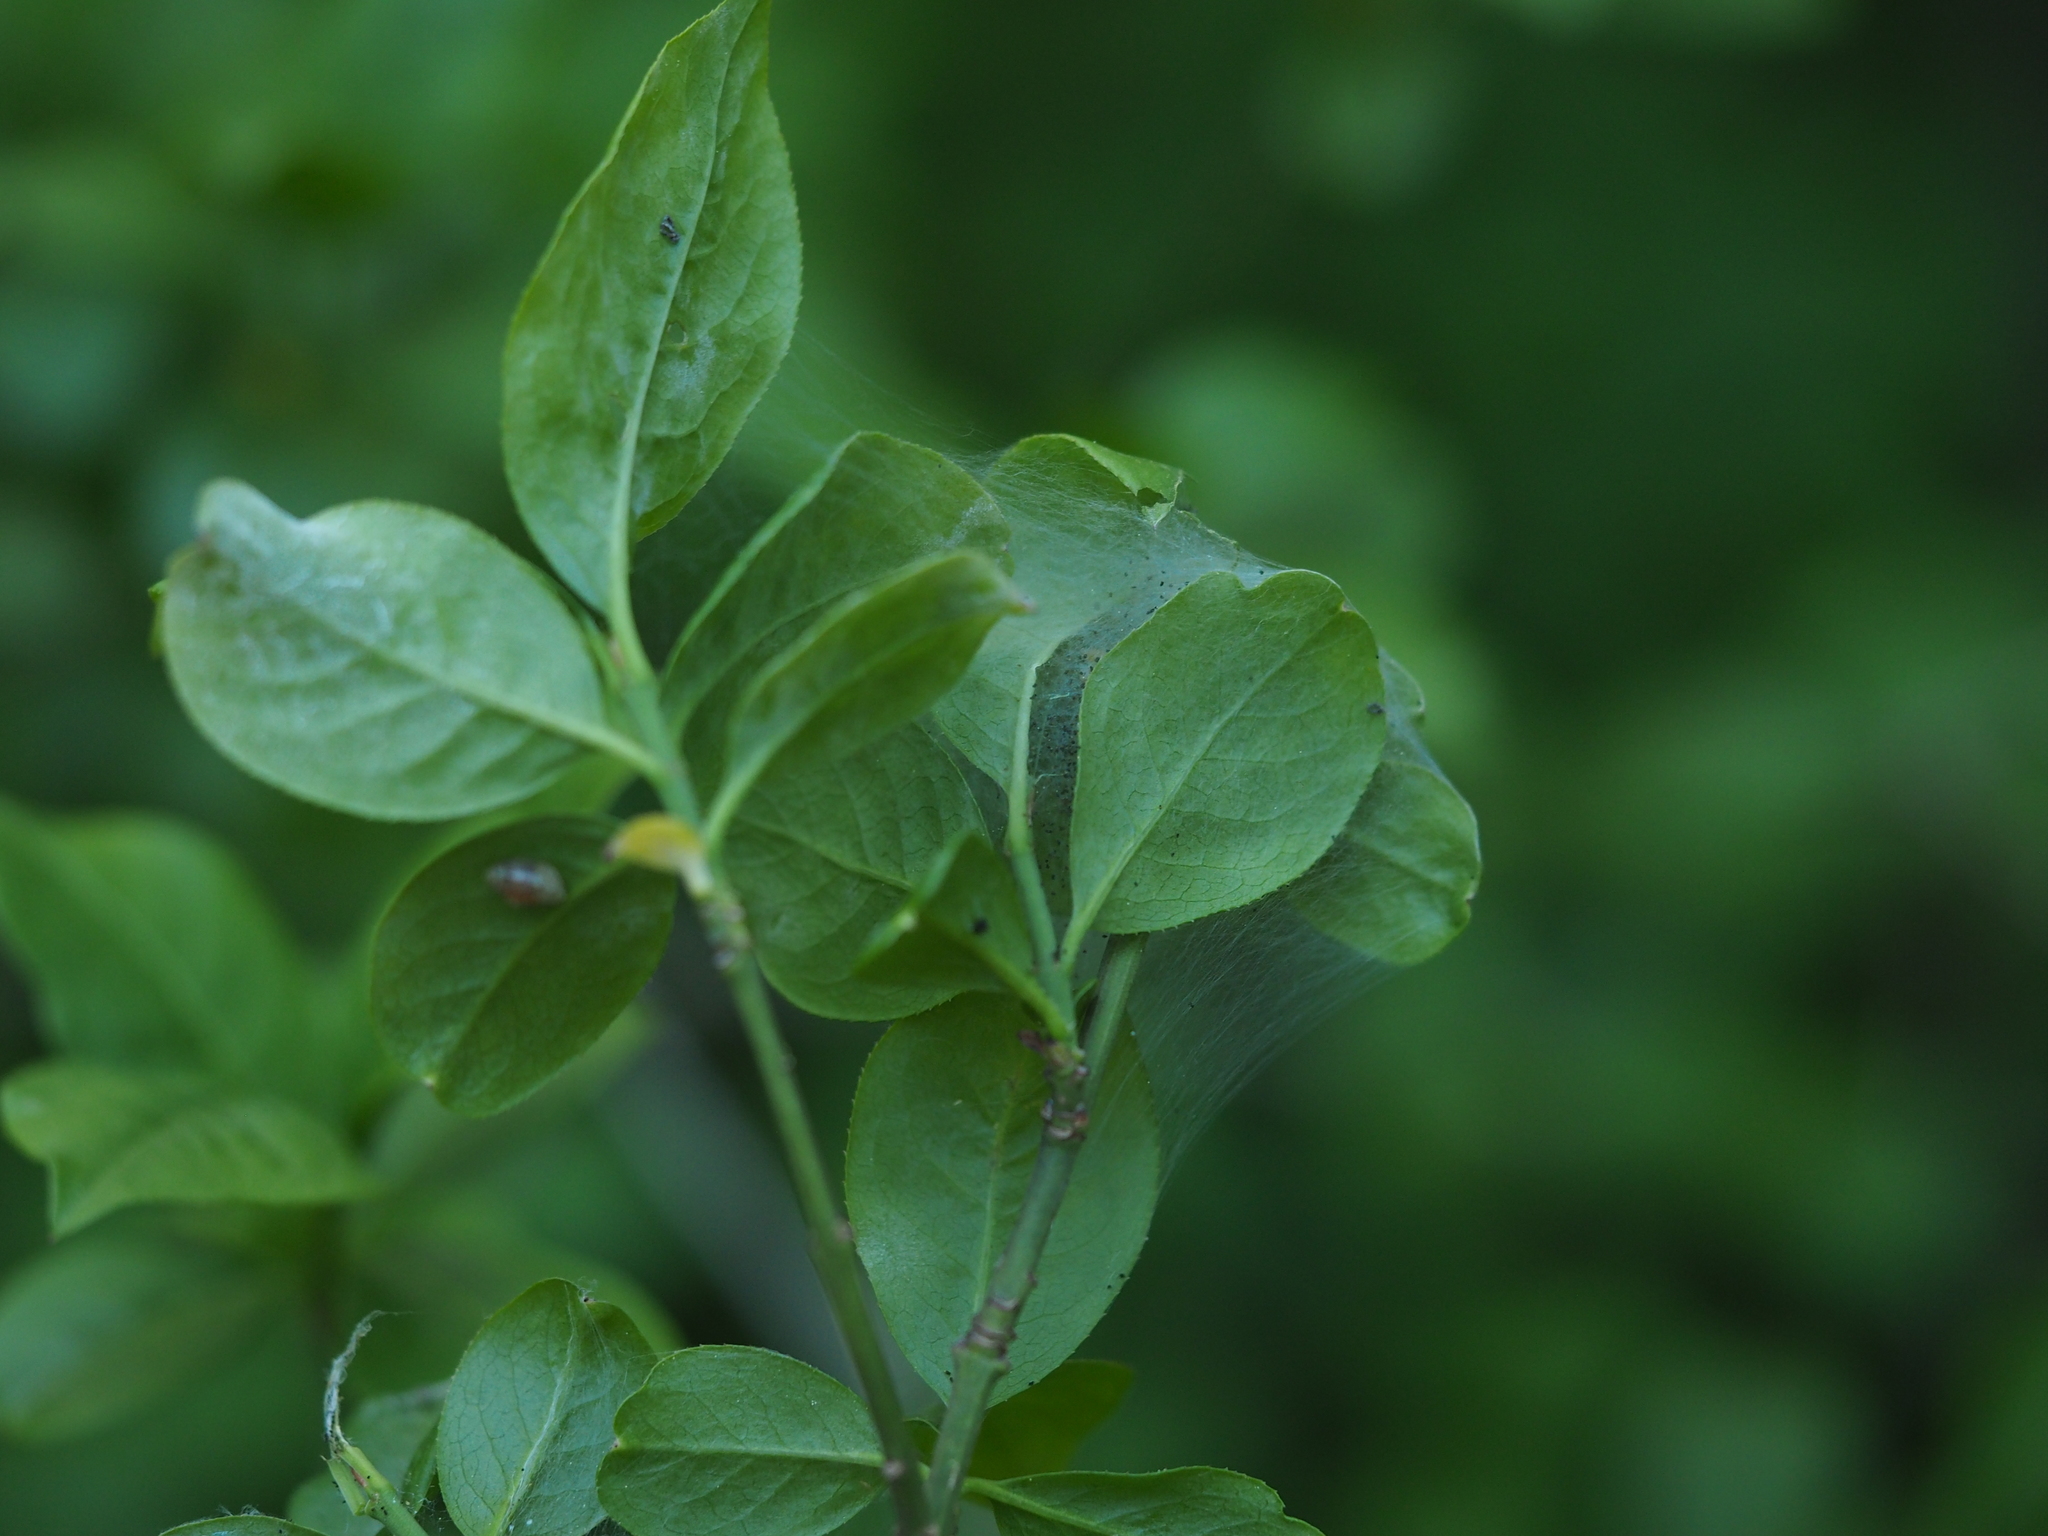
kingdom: Animalia
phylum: Arthropoda
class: Insecta
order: Lepidoptera
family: Yponomeutidae
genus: Yponomeuta
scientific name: Yponomeuta cagnagellus
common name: Spindle ermine
